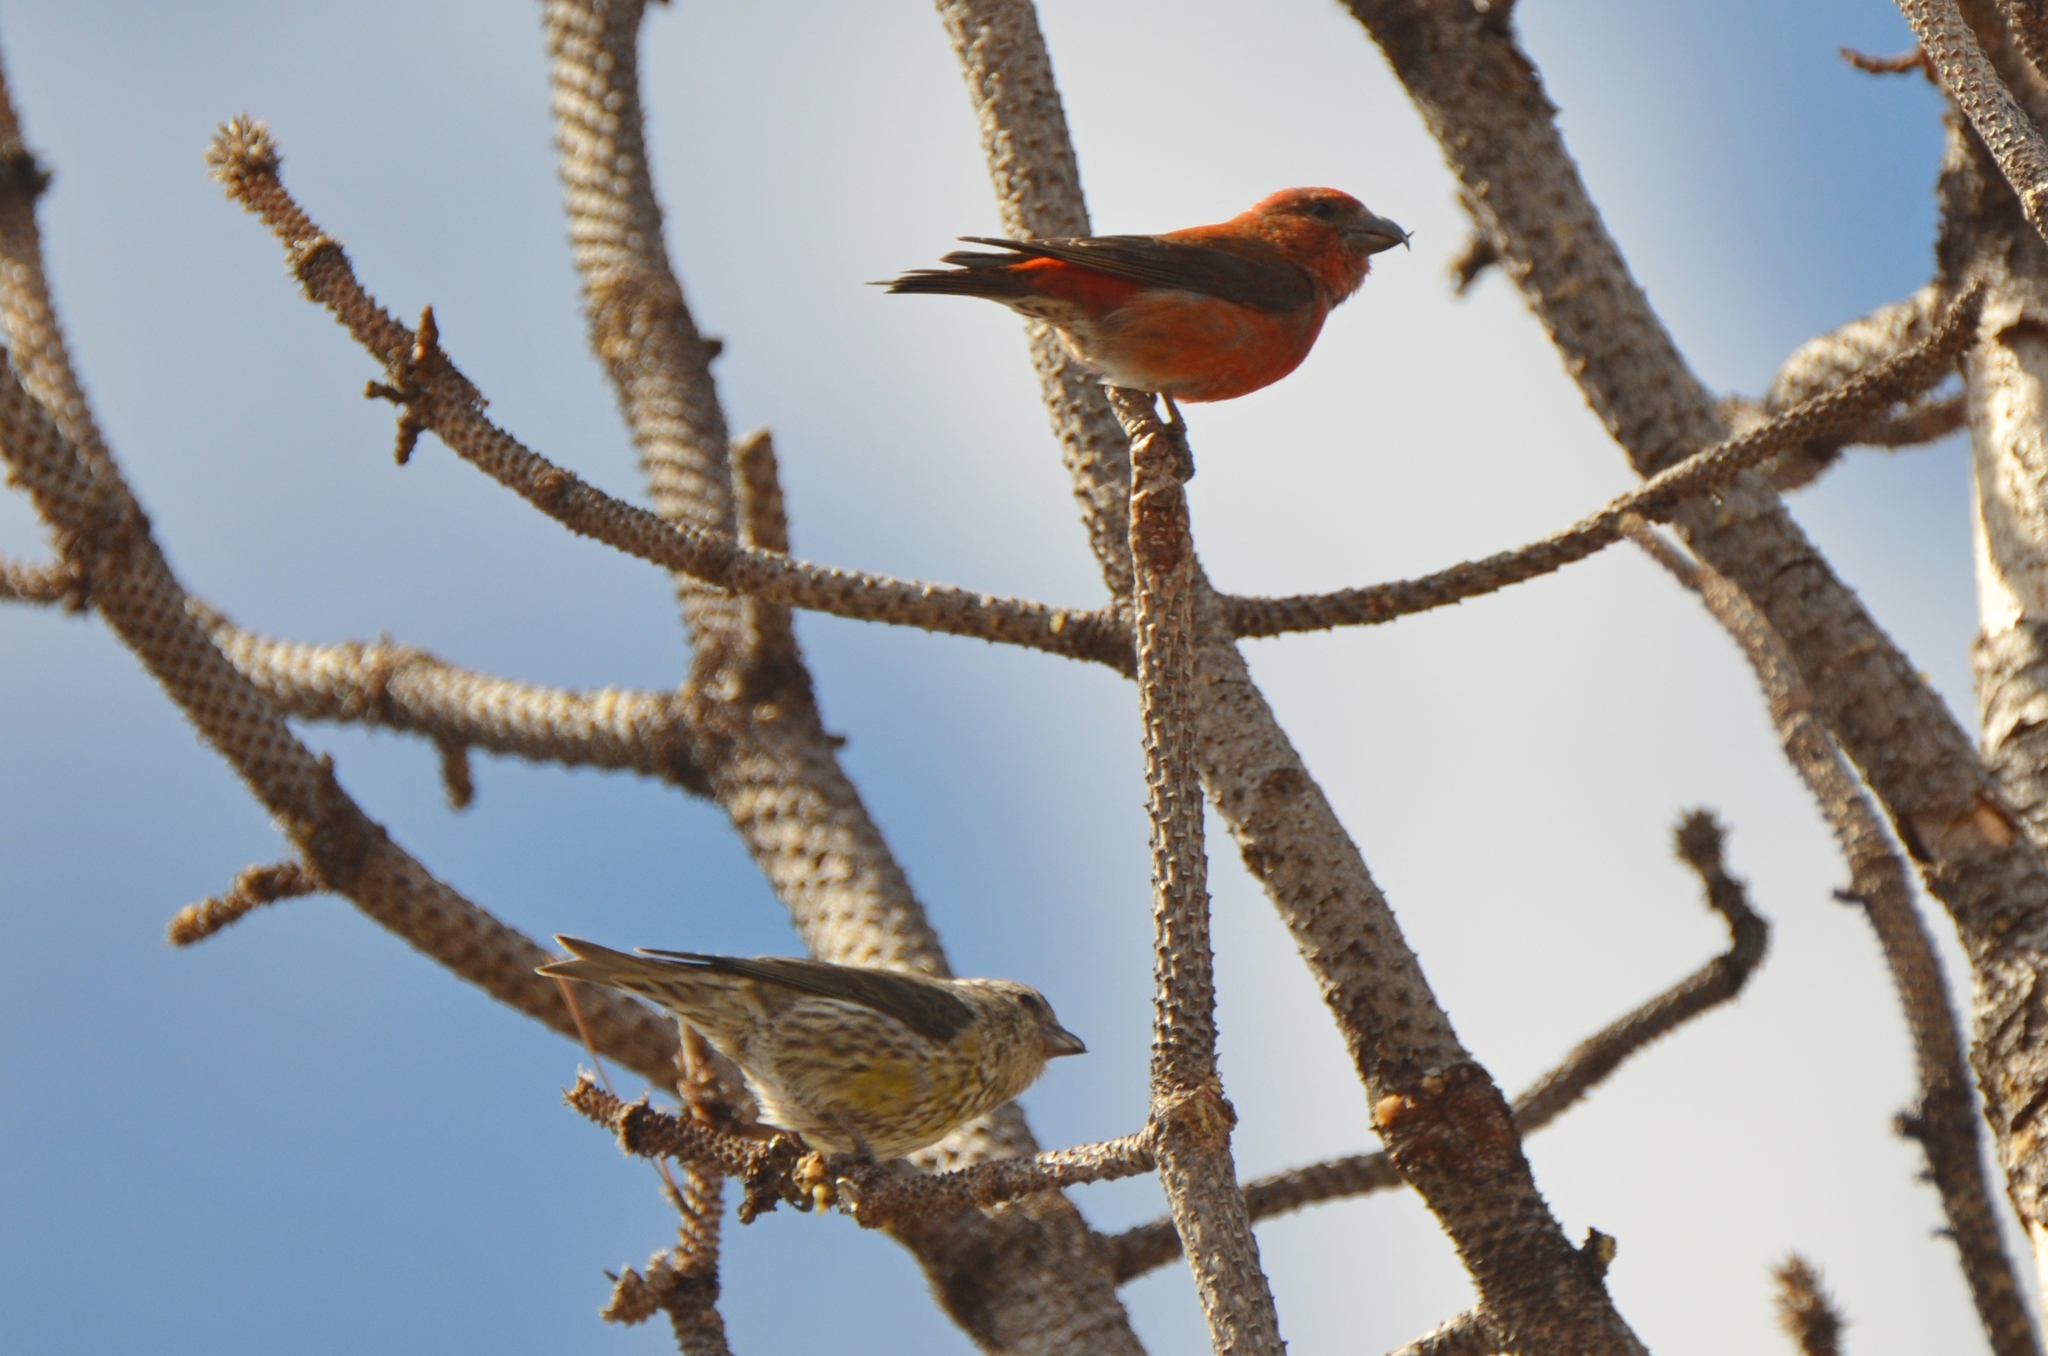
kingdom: Animalia
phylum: Chordata
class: Aves
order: Passeriformes
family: Fringillidae
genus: Loxia
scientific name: Loxia curvirostra
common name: Red crossbill
